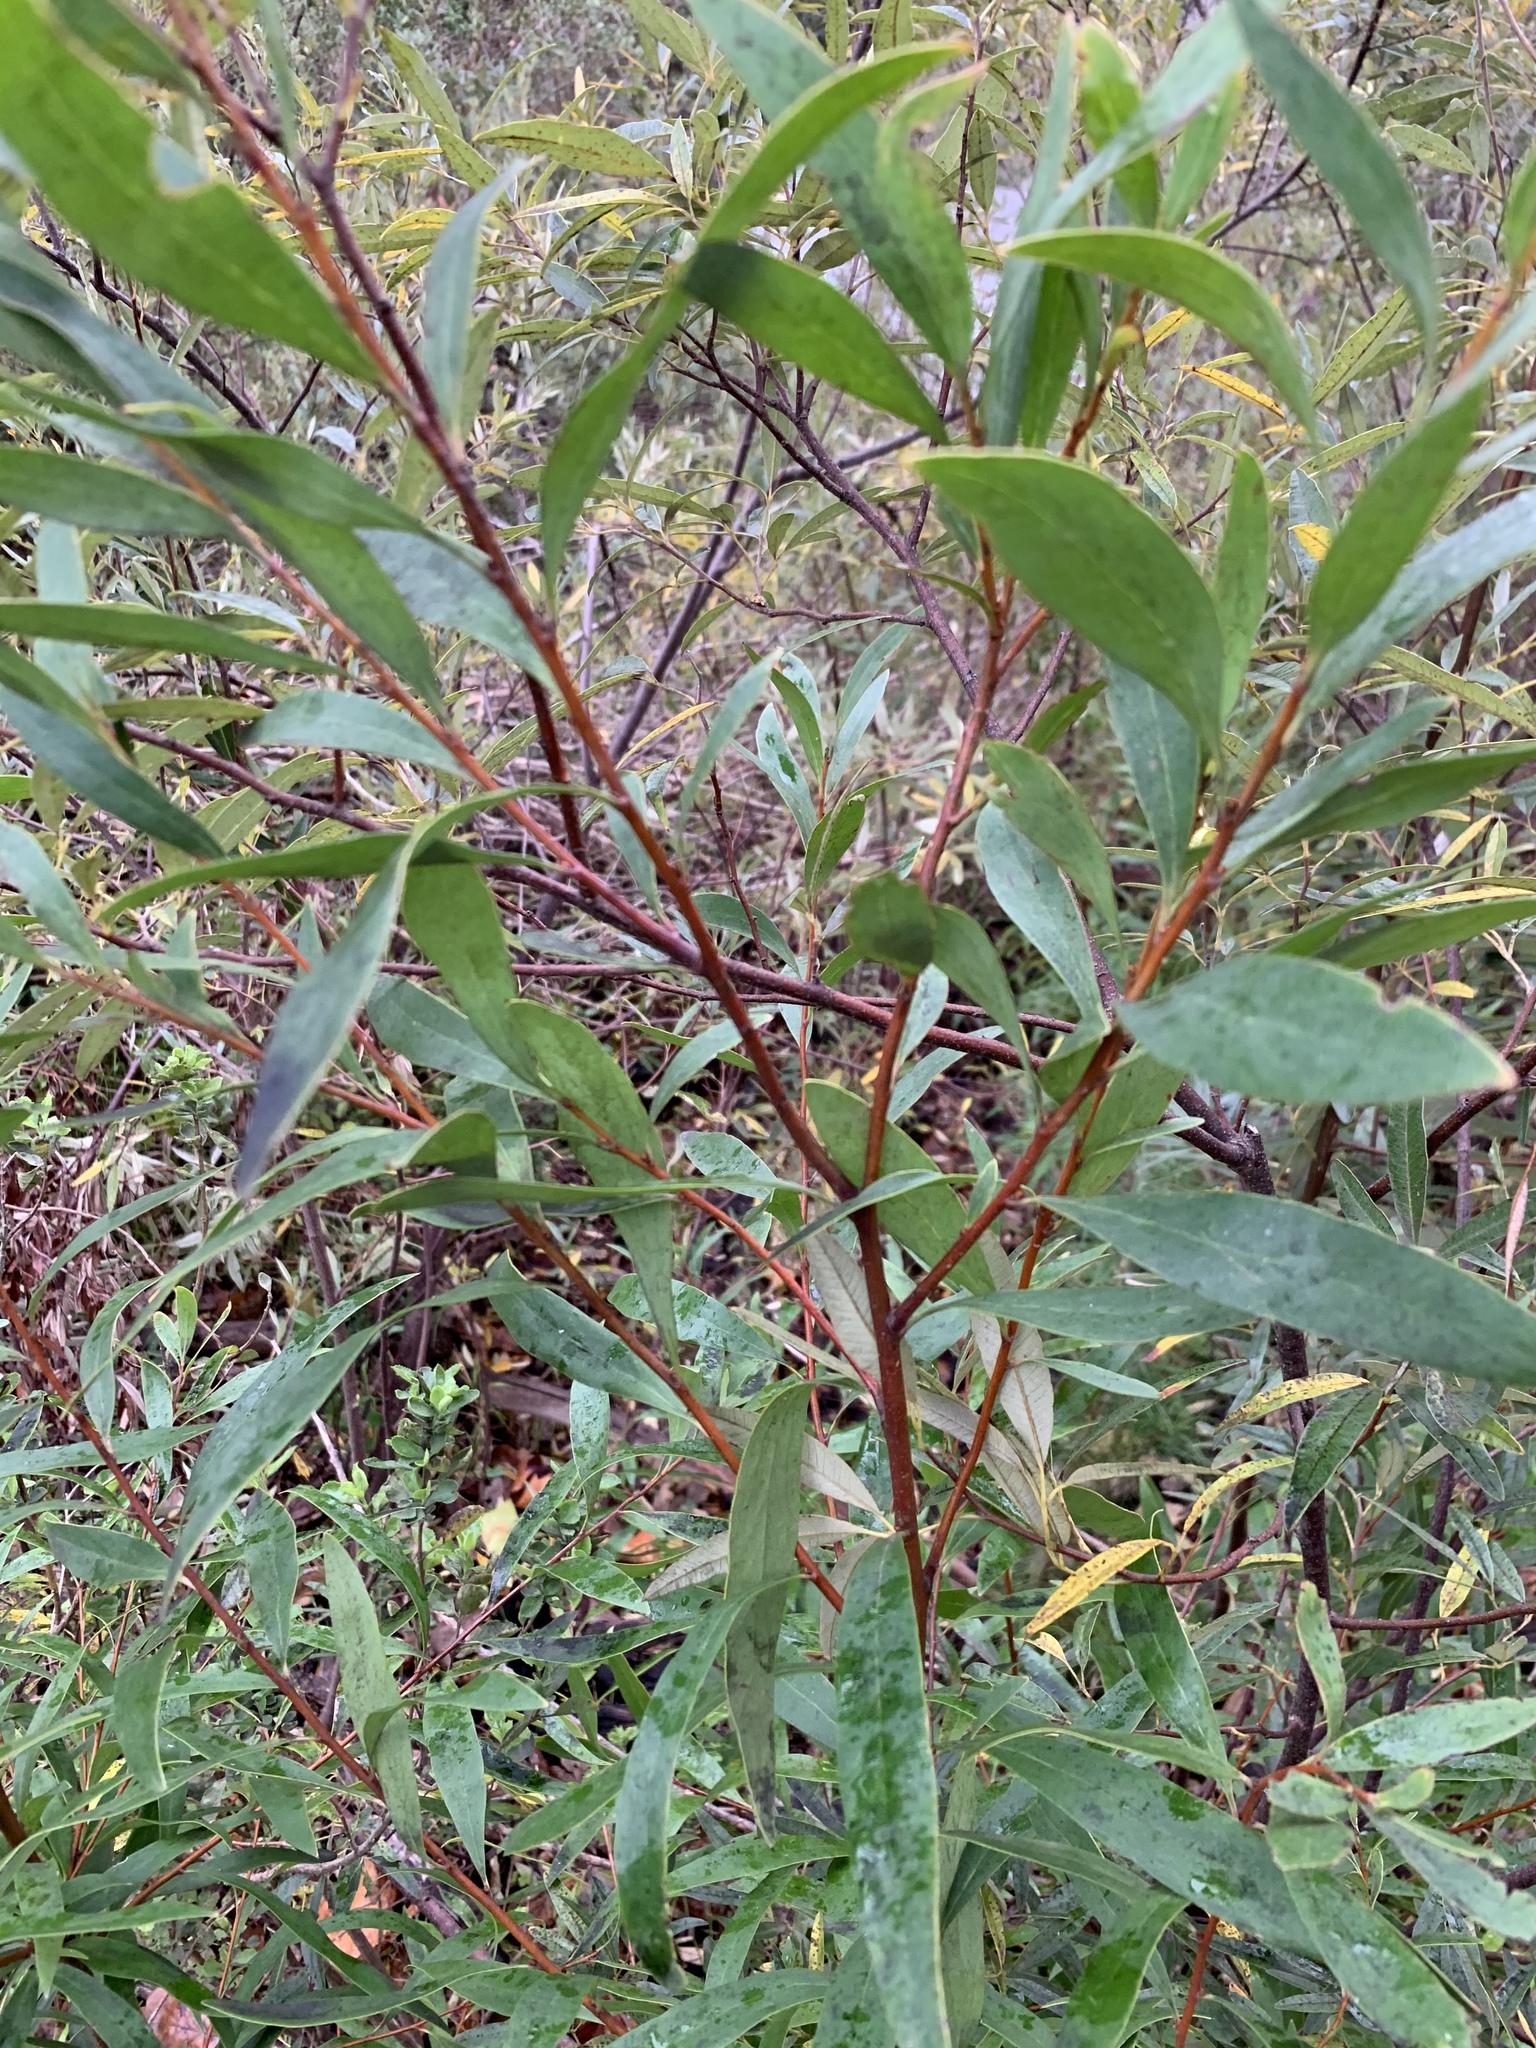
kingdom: Plantae
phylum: Tracheophyta
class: Magnoliopsida
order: Proteales
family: Proteaceae
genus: Hakea
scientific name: Hakea salicifolia
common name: Willow hakea
